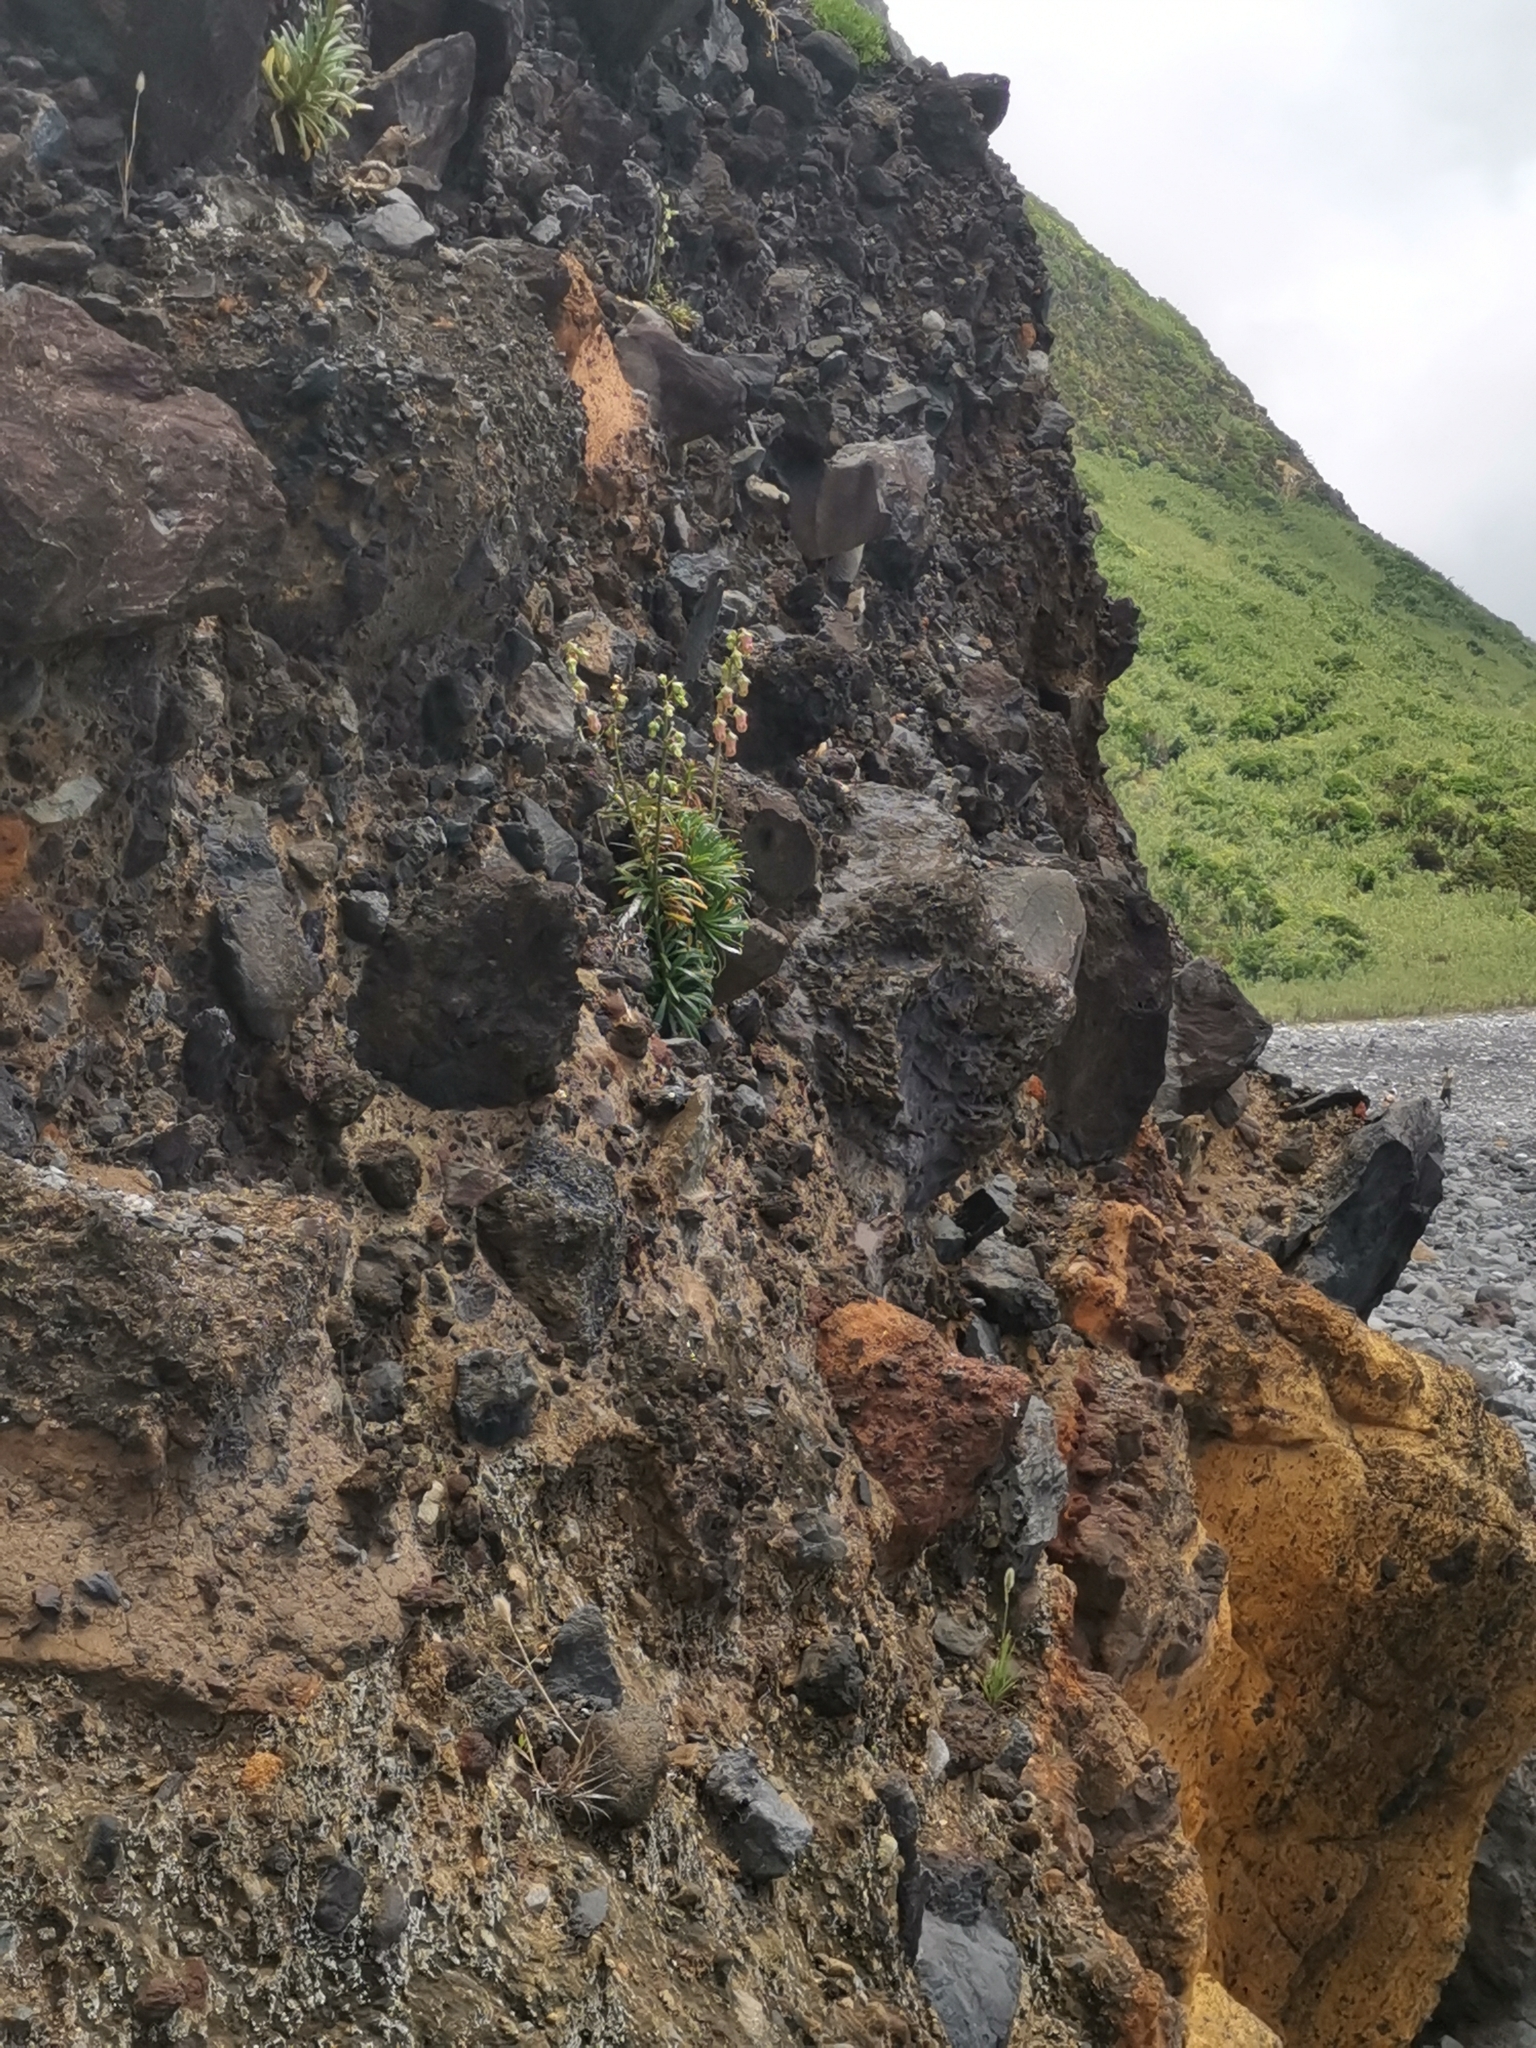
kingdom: Plantae
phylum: Tracheophyta
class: Magnoliopsida
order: Asterales
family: Campanulaceae
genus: Campanula
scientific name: Campanula vidalii
